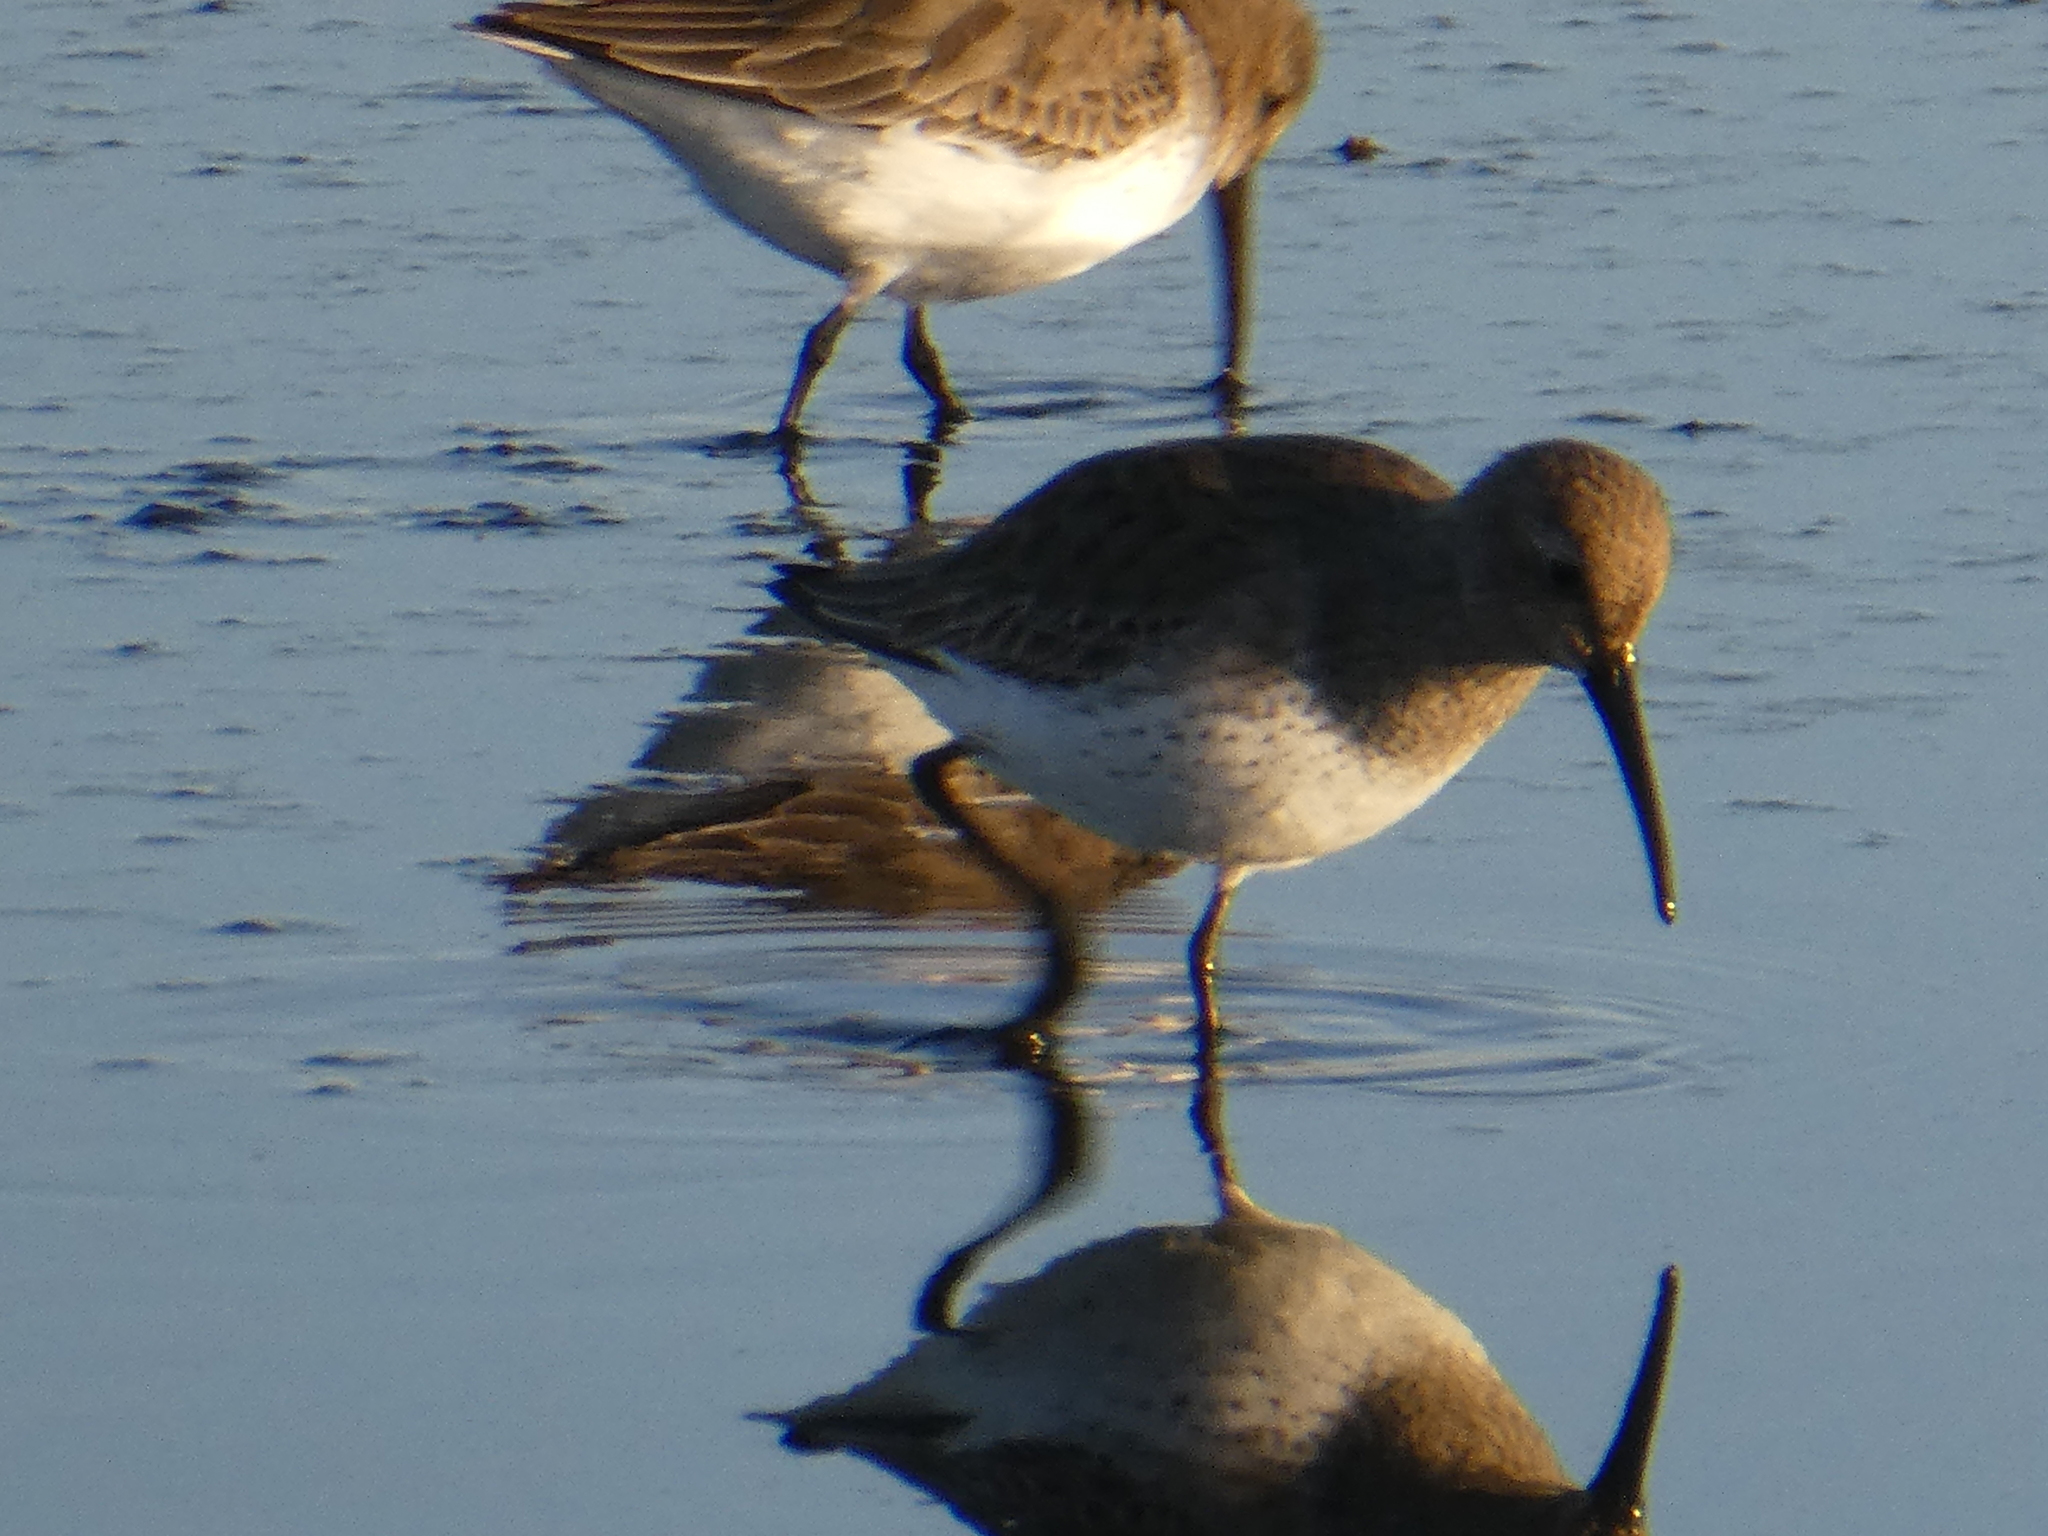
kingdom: Animalia
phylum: Chordata
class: Aves
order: Charadriiformes
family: Scolopacidae
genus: Calidris
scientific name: Calidris alpina
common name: Dunlin
